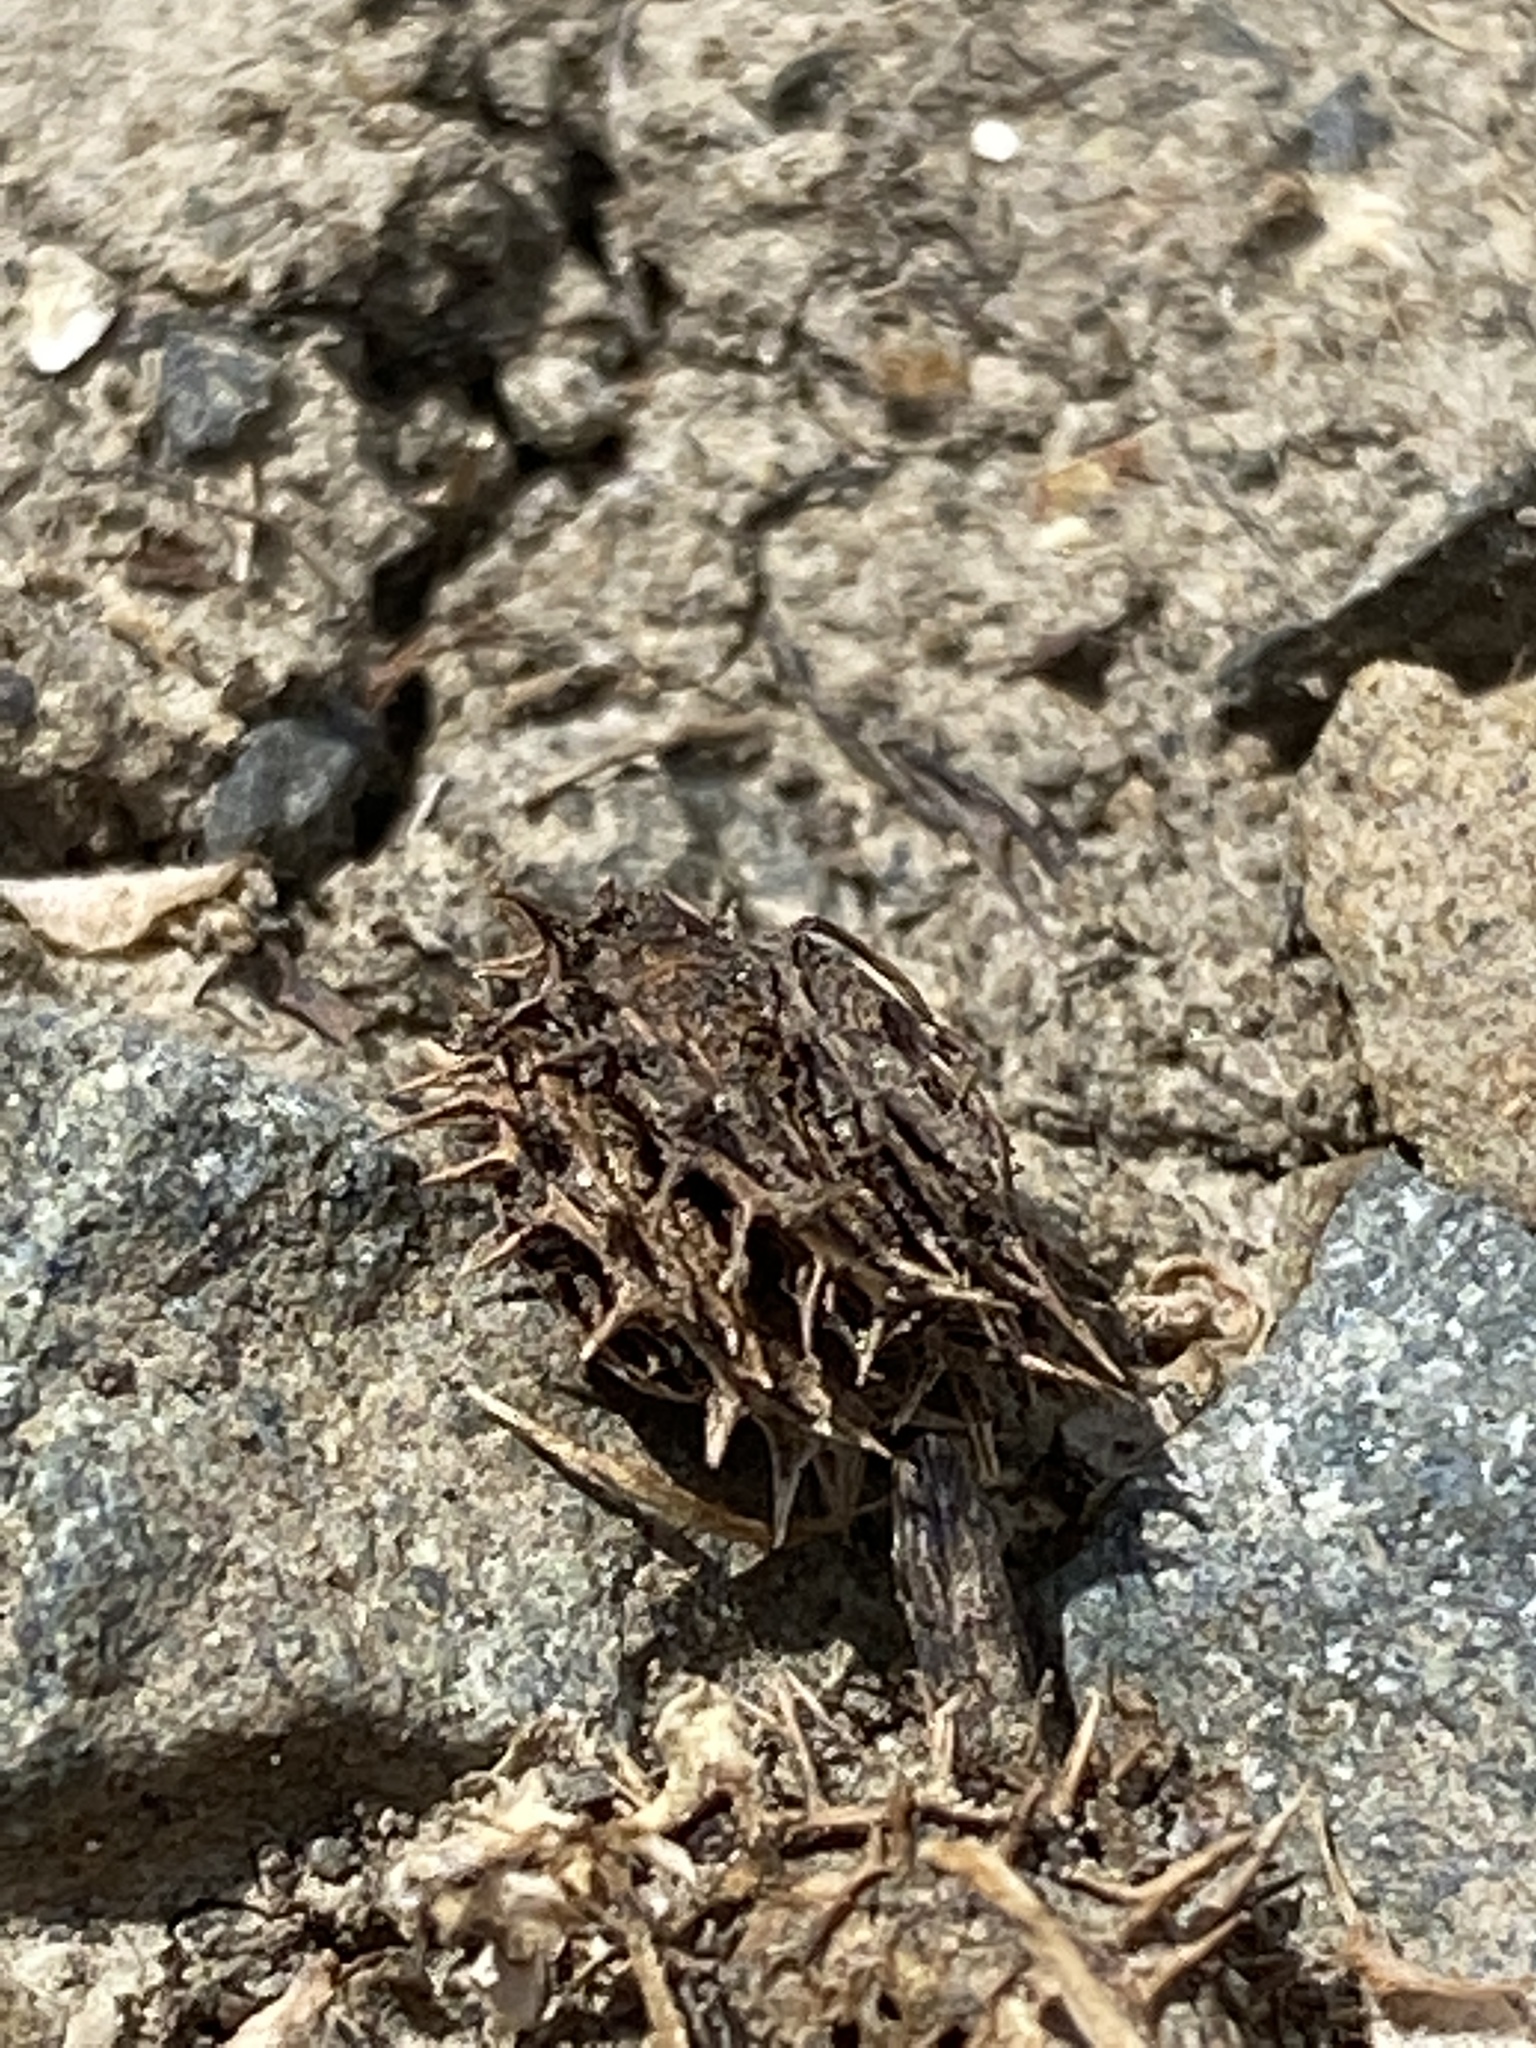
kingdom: Plantae
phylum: Tracheophyta
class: Magnoliopsida
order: Fabales
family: Fabaceae
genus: Medicago
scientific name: Medicago polymorpha
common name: Burclover
